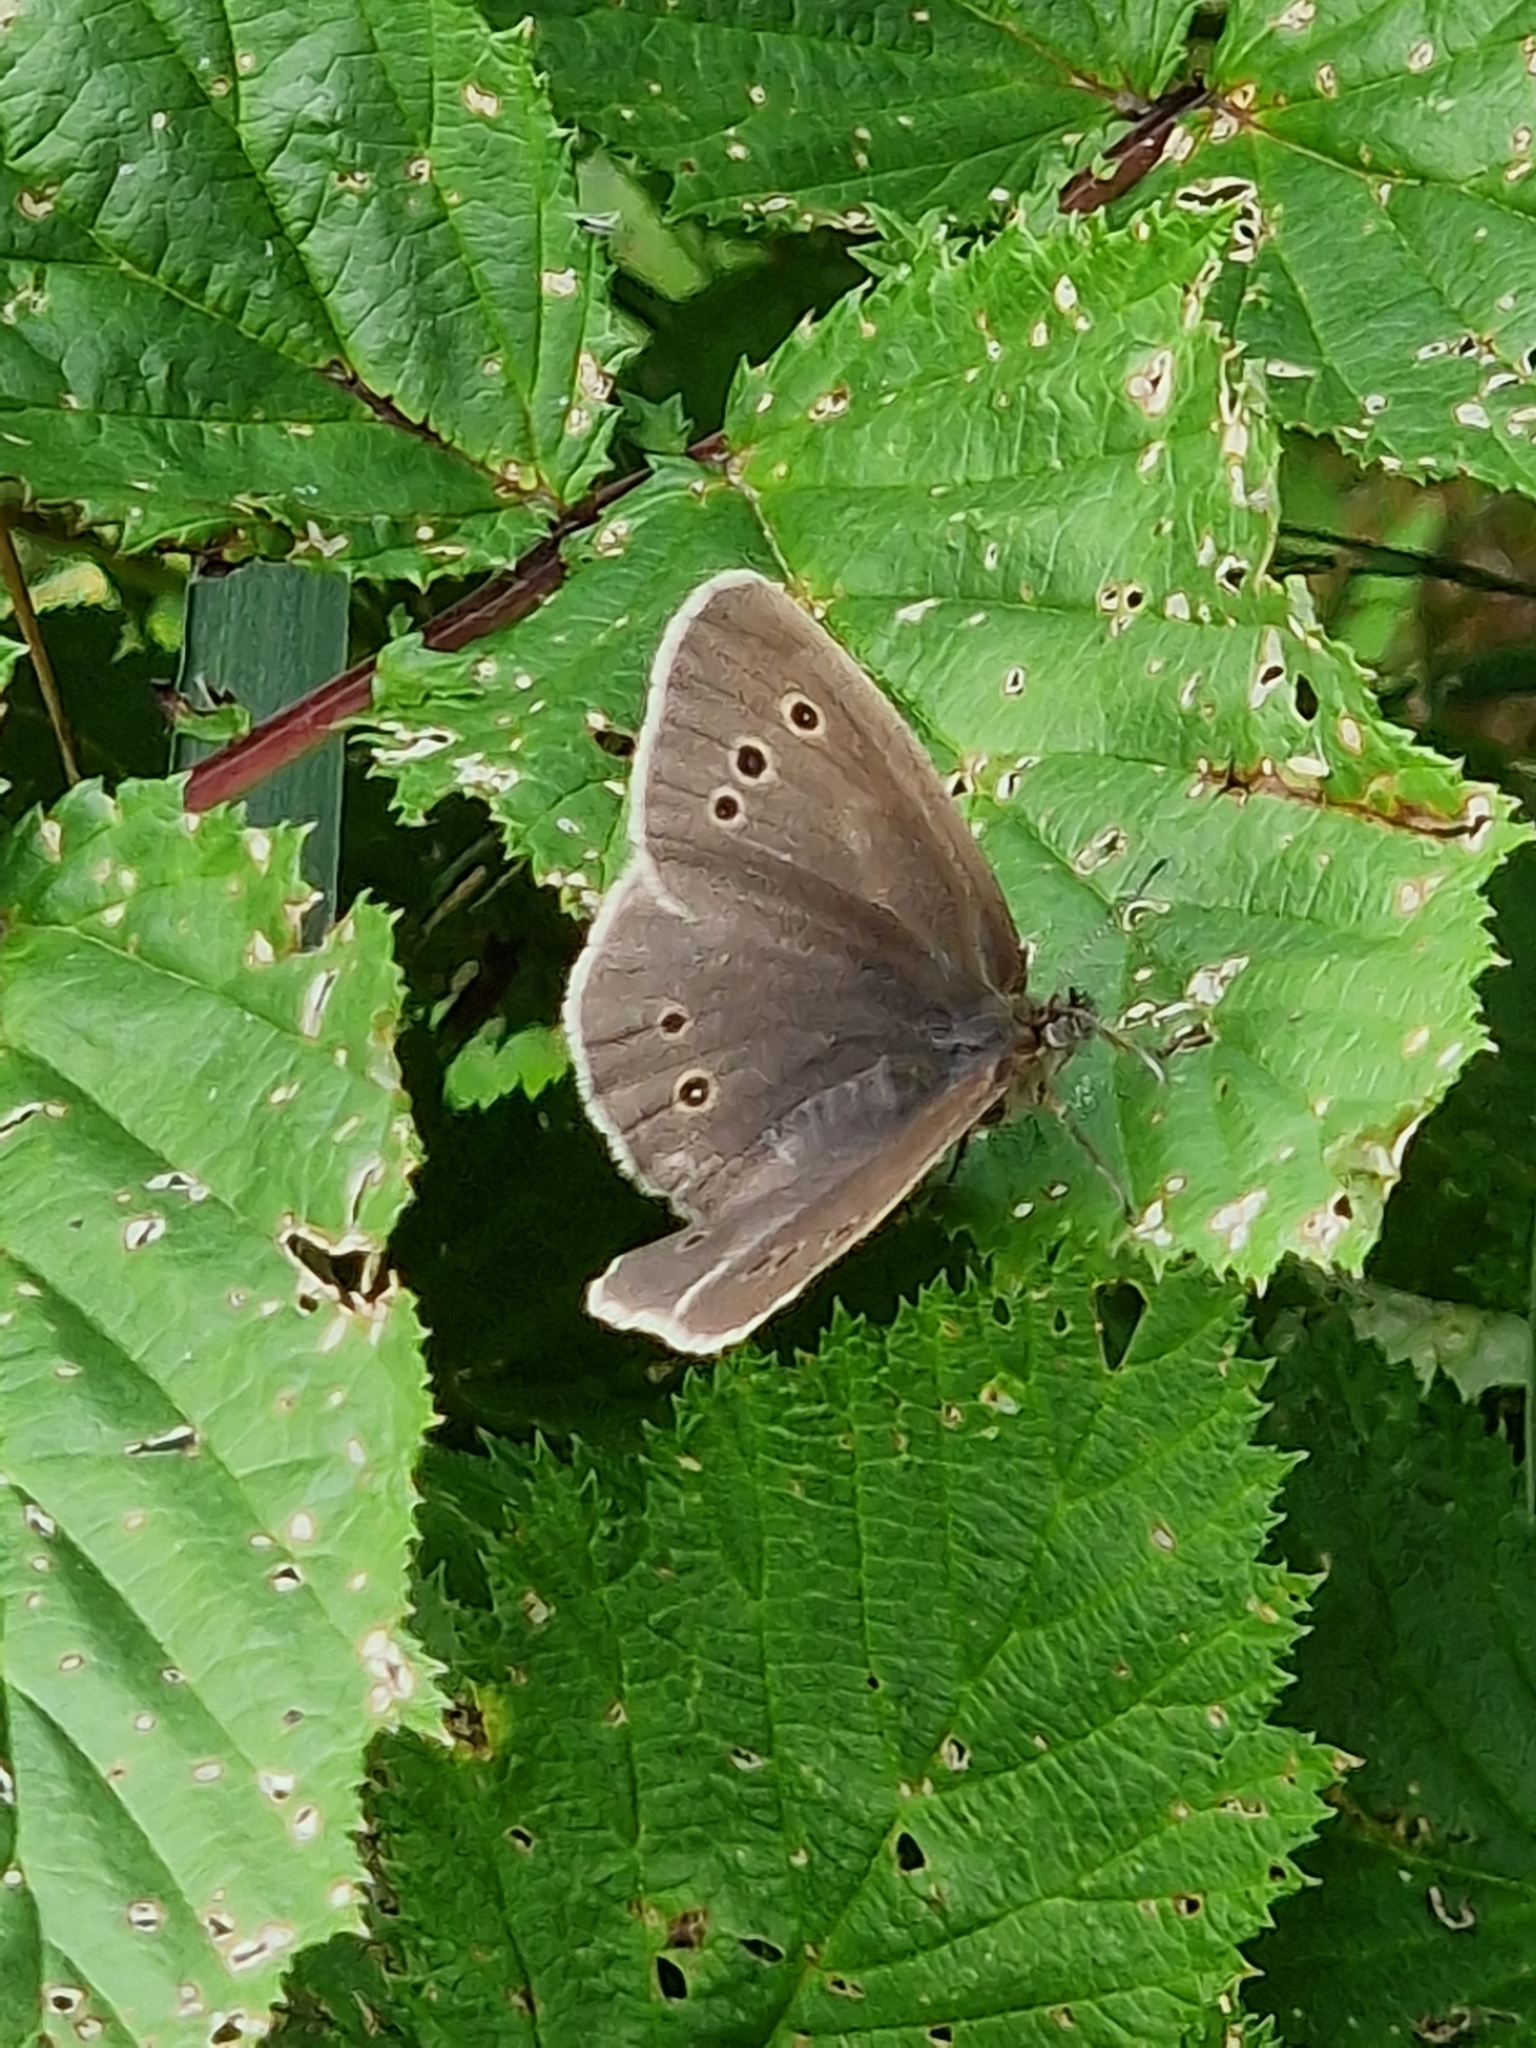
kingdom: Animalia
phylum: Arthropoda
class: Insecta
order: Lepidoptera
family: Nymphalidae
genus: Aphantopus
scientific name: Aphantopus hyperantus
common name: Ringlet
